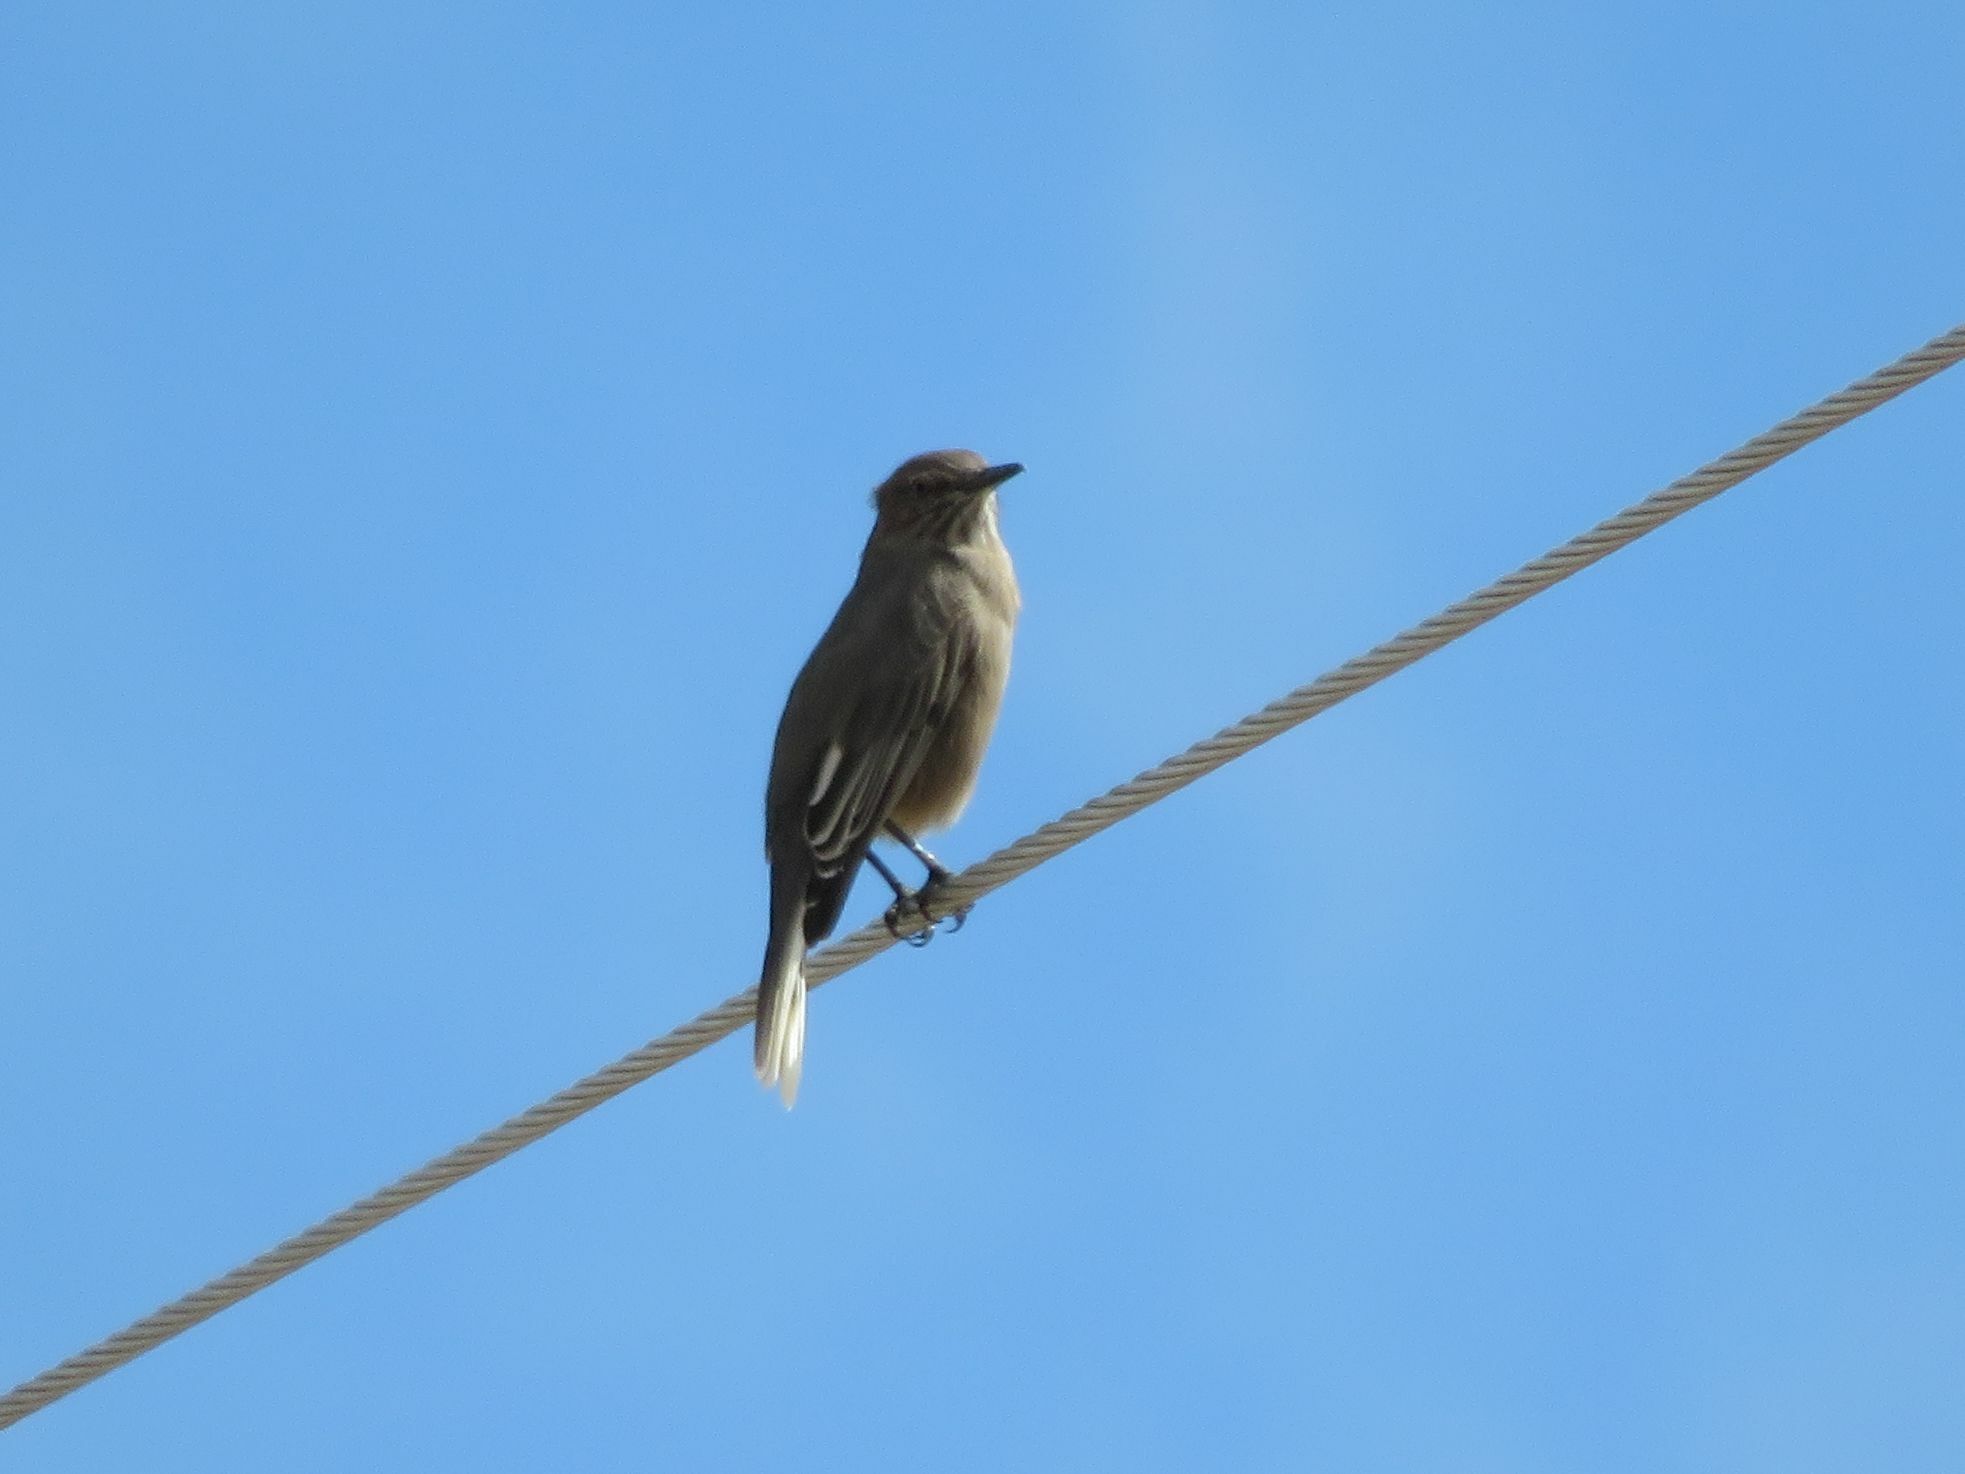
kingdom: Animalia
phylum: Chordata
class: Aves
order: Passeriformes
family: Tyrannidae
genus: Agriornis
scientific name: Agriornis montanus
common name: Black-billed shrike-tyrant
